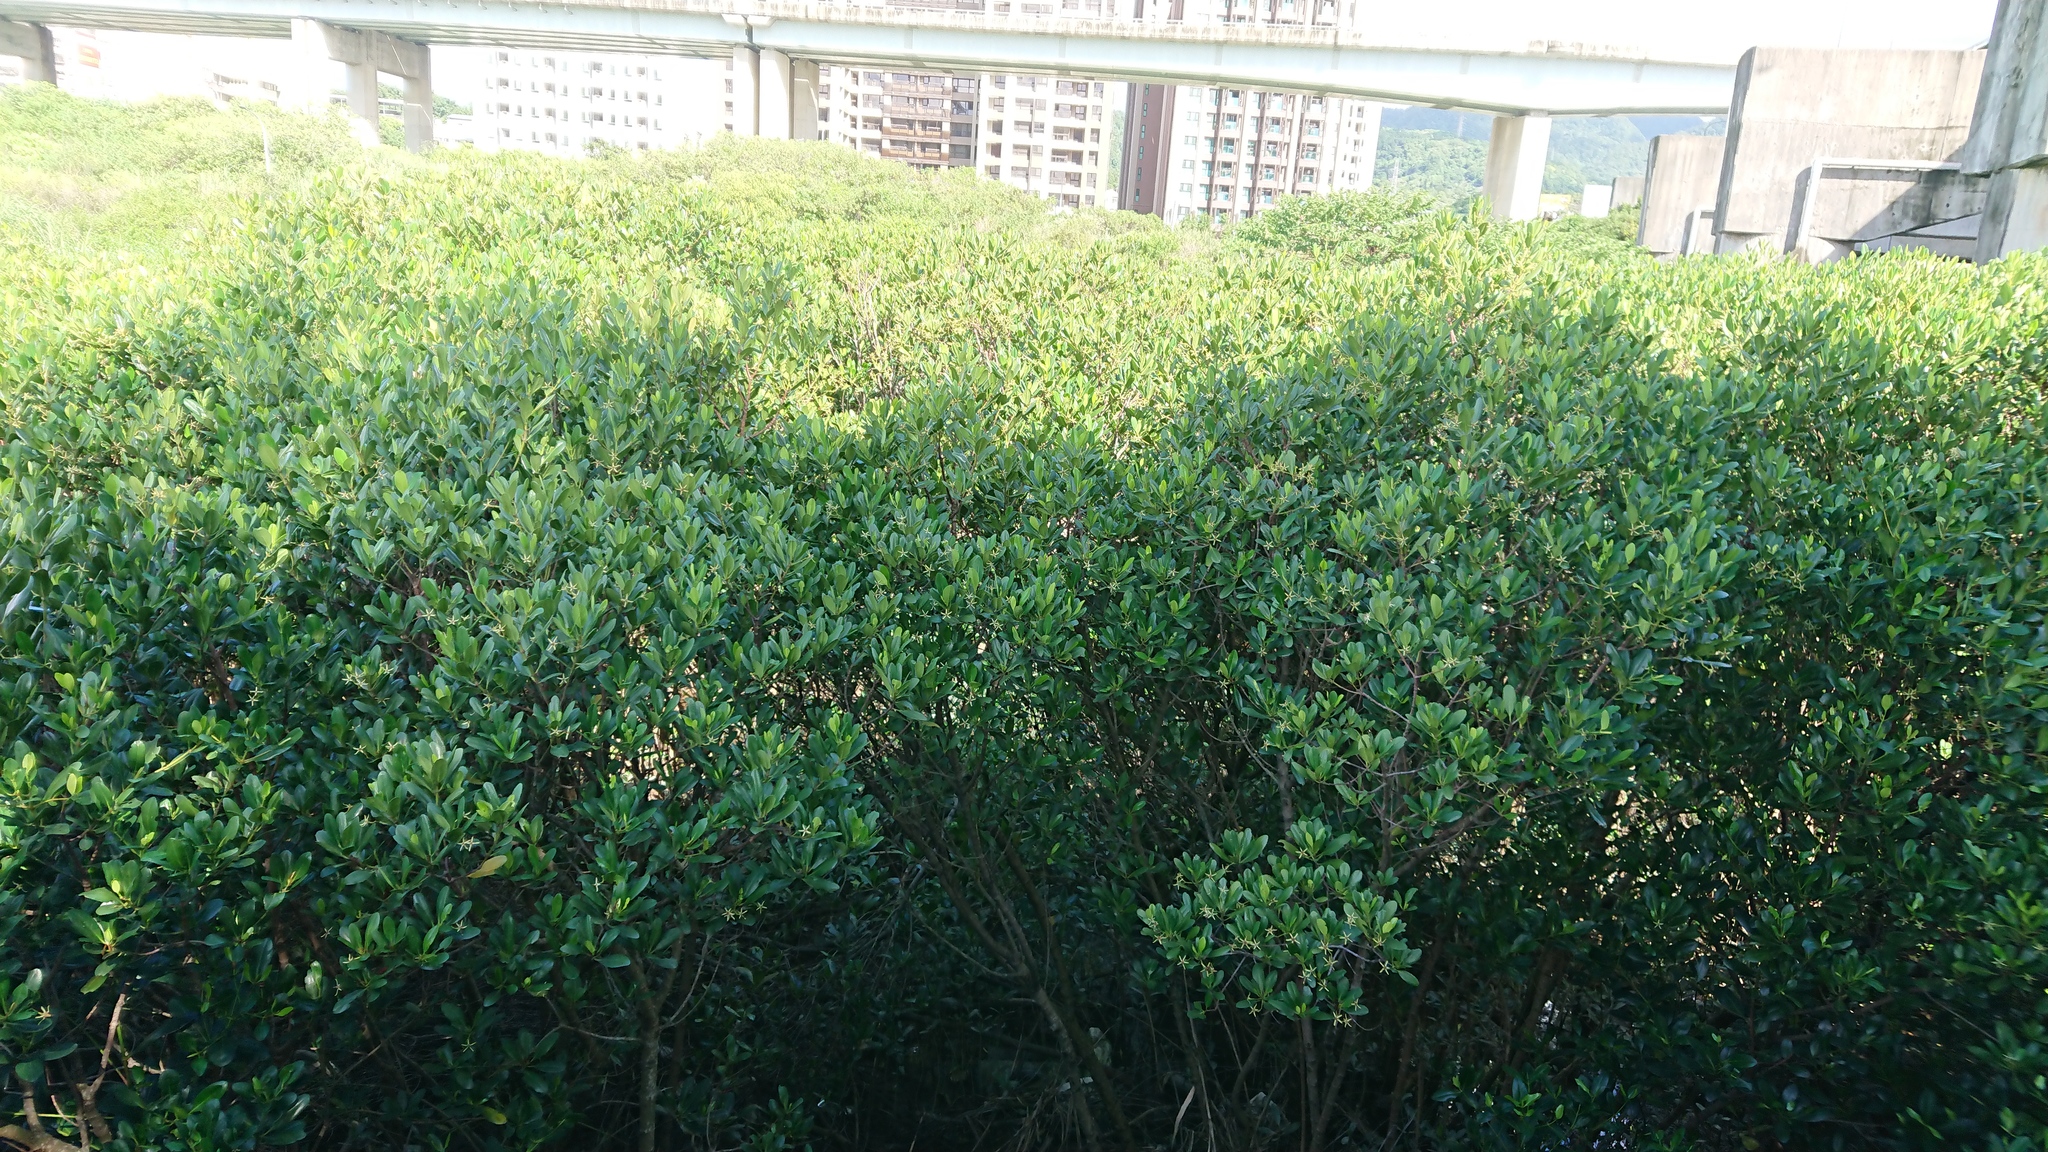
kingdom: Plantae
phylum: Tracheophyta
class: Magnoliopsida
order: Malpighiales
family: Rhizophoraceae
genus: Kandelia
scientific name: Kandelia obovata
